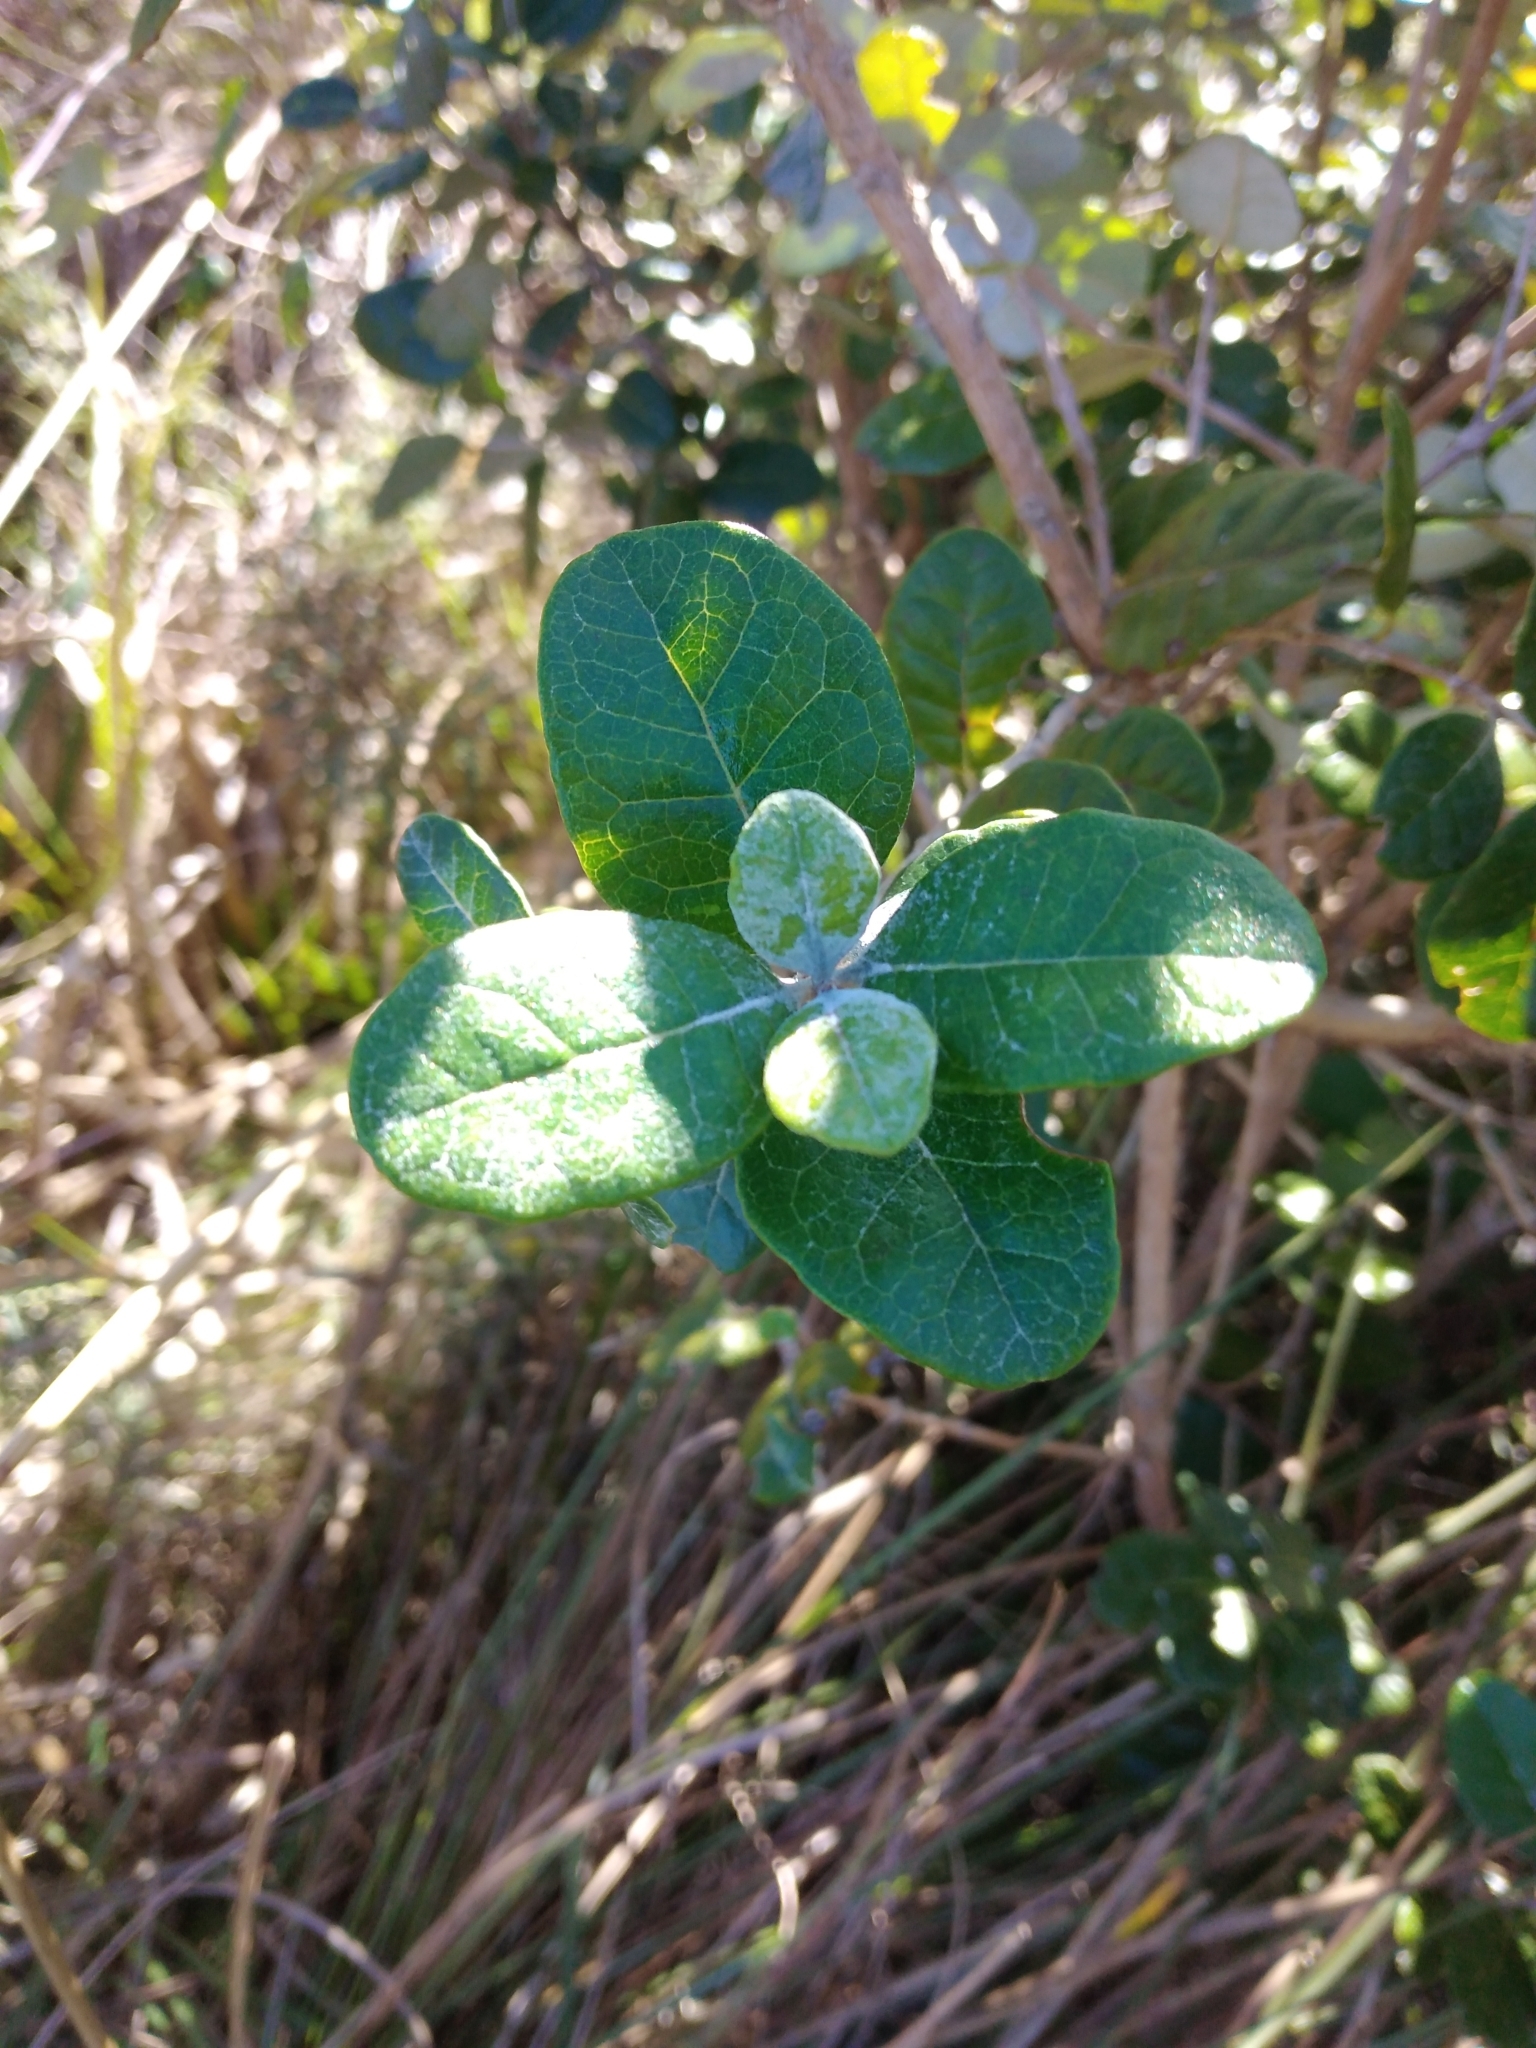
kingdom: Plantae
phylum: Tracheophyta
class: Magnoliopsida
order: Myrtales
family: Myrtaceae
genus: Feijoa
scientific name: Feijoa sellowiana
